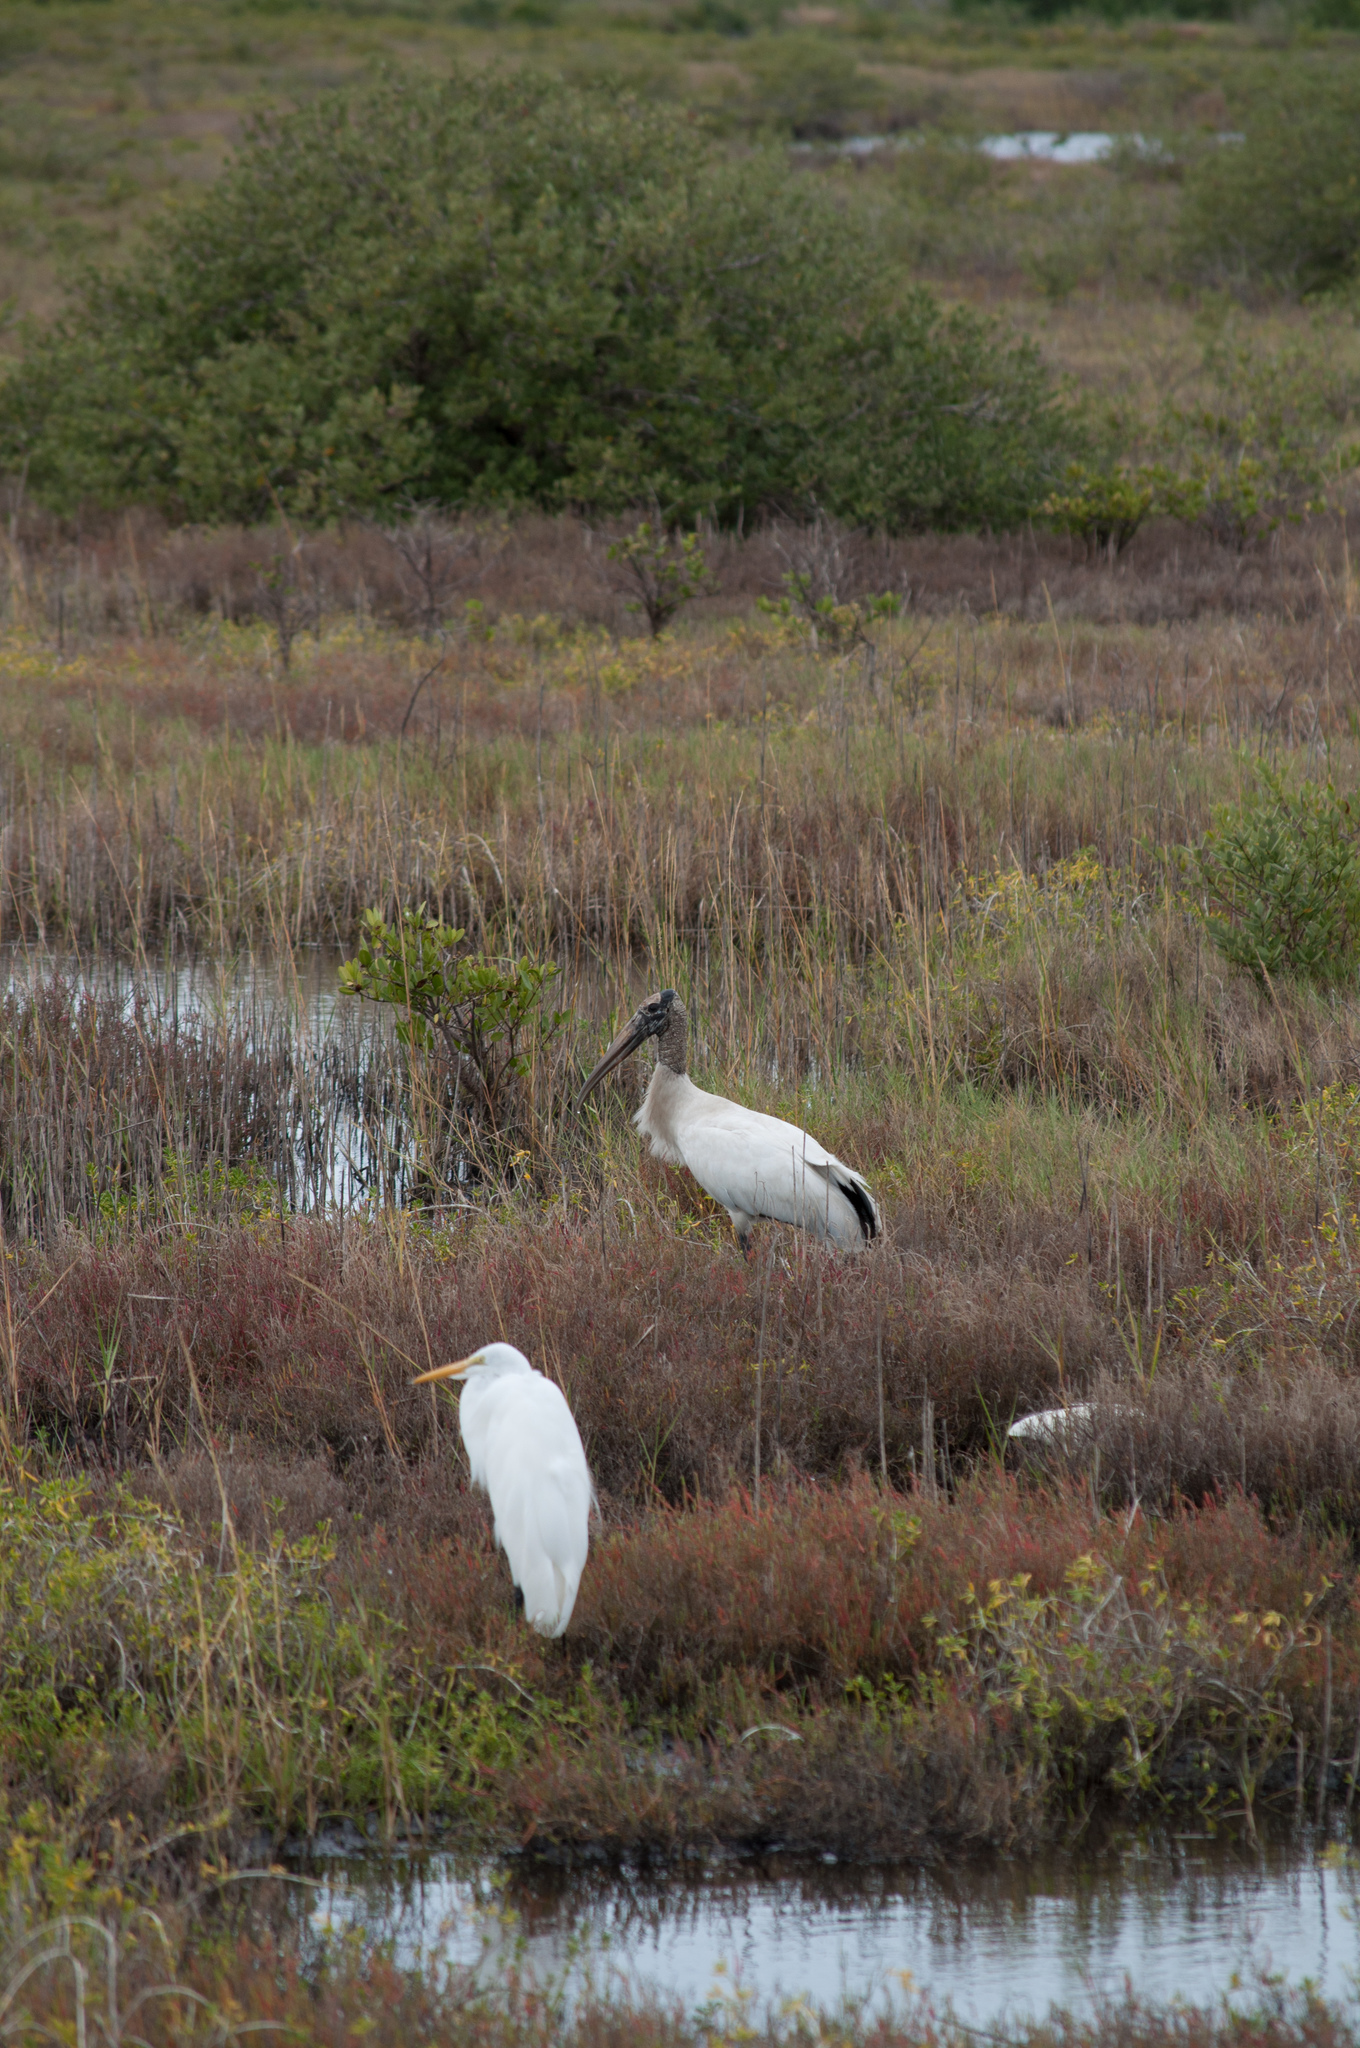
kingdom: Animalia
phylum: Chordata
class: Aves
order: Ciconiiformes
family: Ciconiidae
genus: Mycteria
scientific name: Mycteria americana
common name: Wood stork
